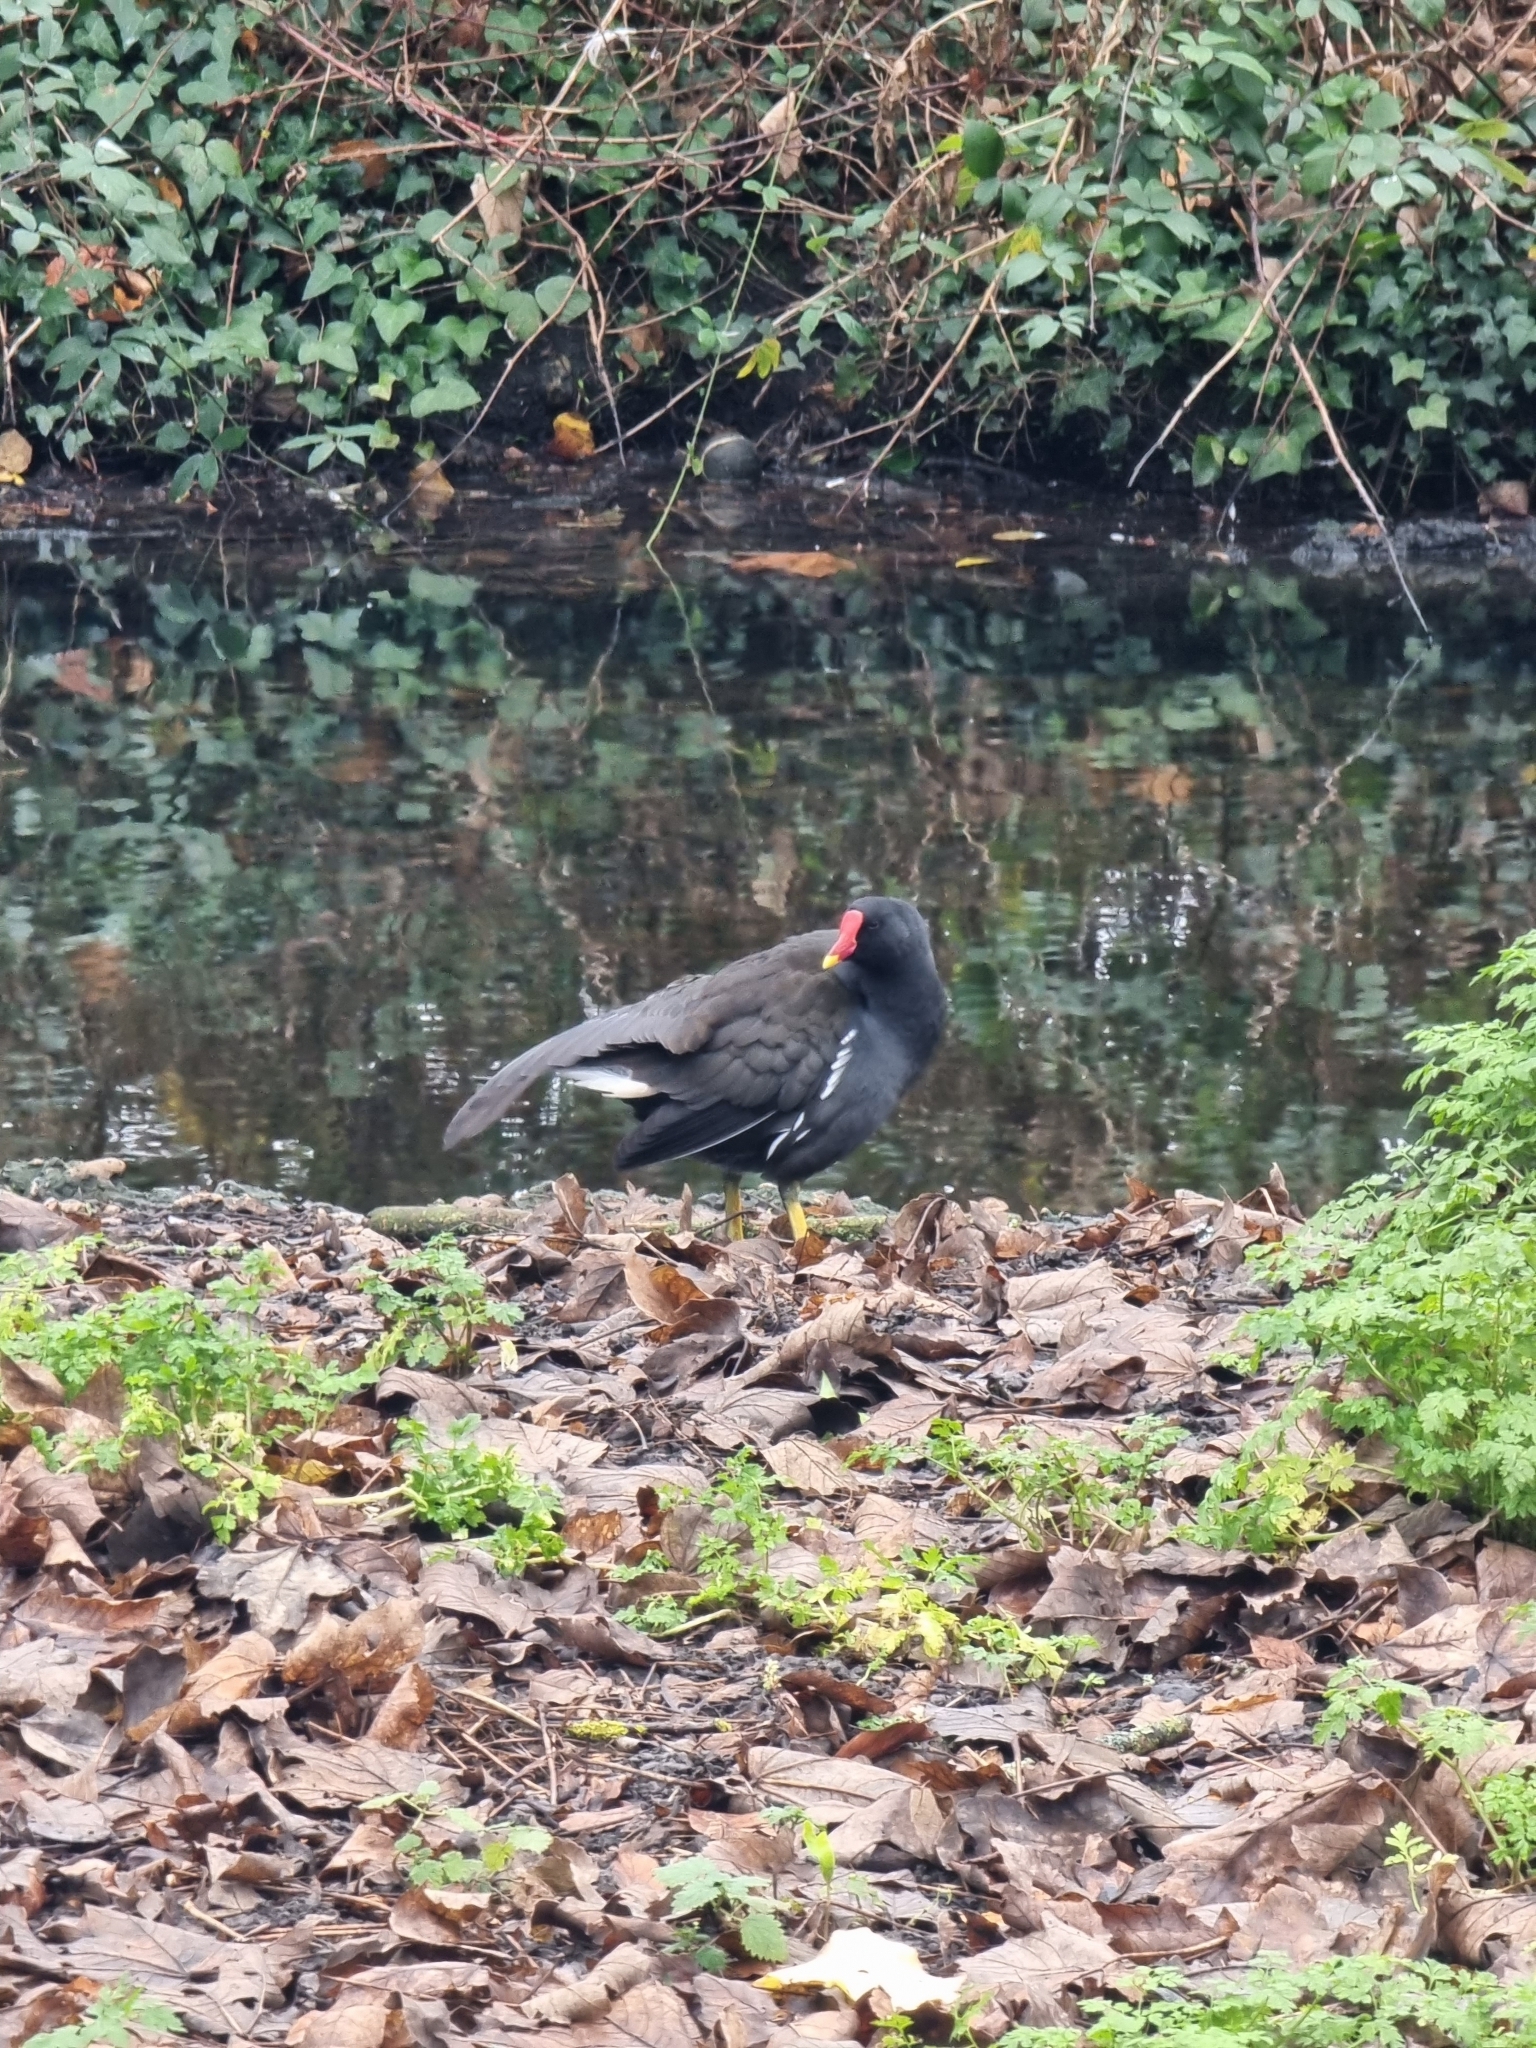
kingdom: Animalia
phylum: Chordata
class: Aves
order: Gruiformes
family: Rallidae
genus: Gallinula
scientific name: Gallinula chloropus
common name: Common moorhen
